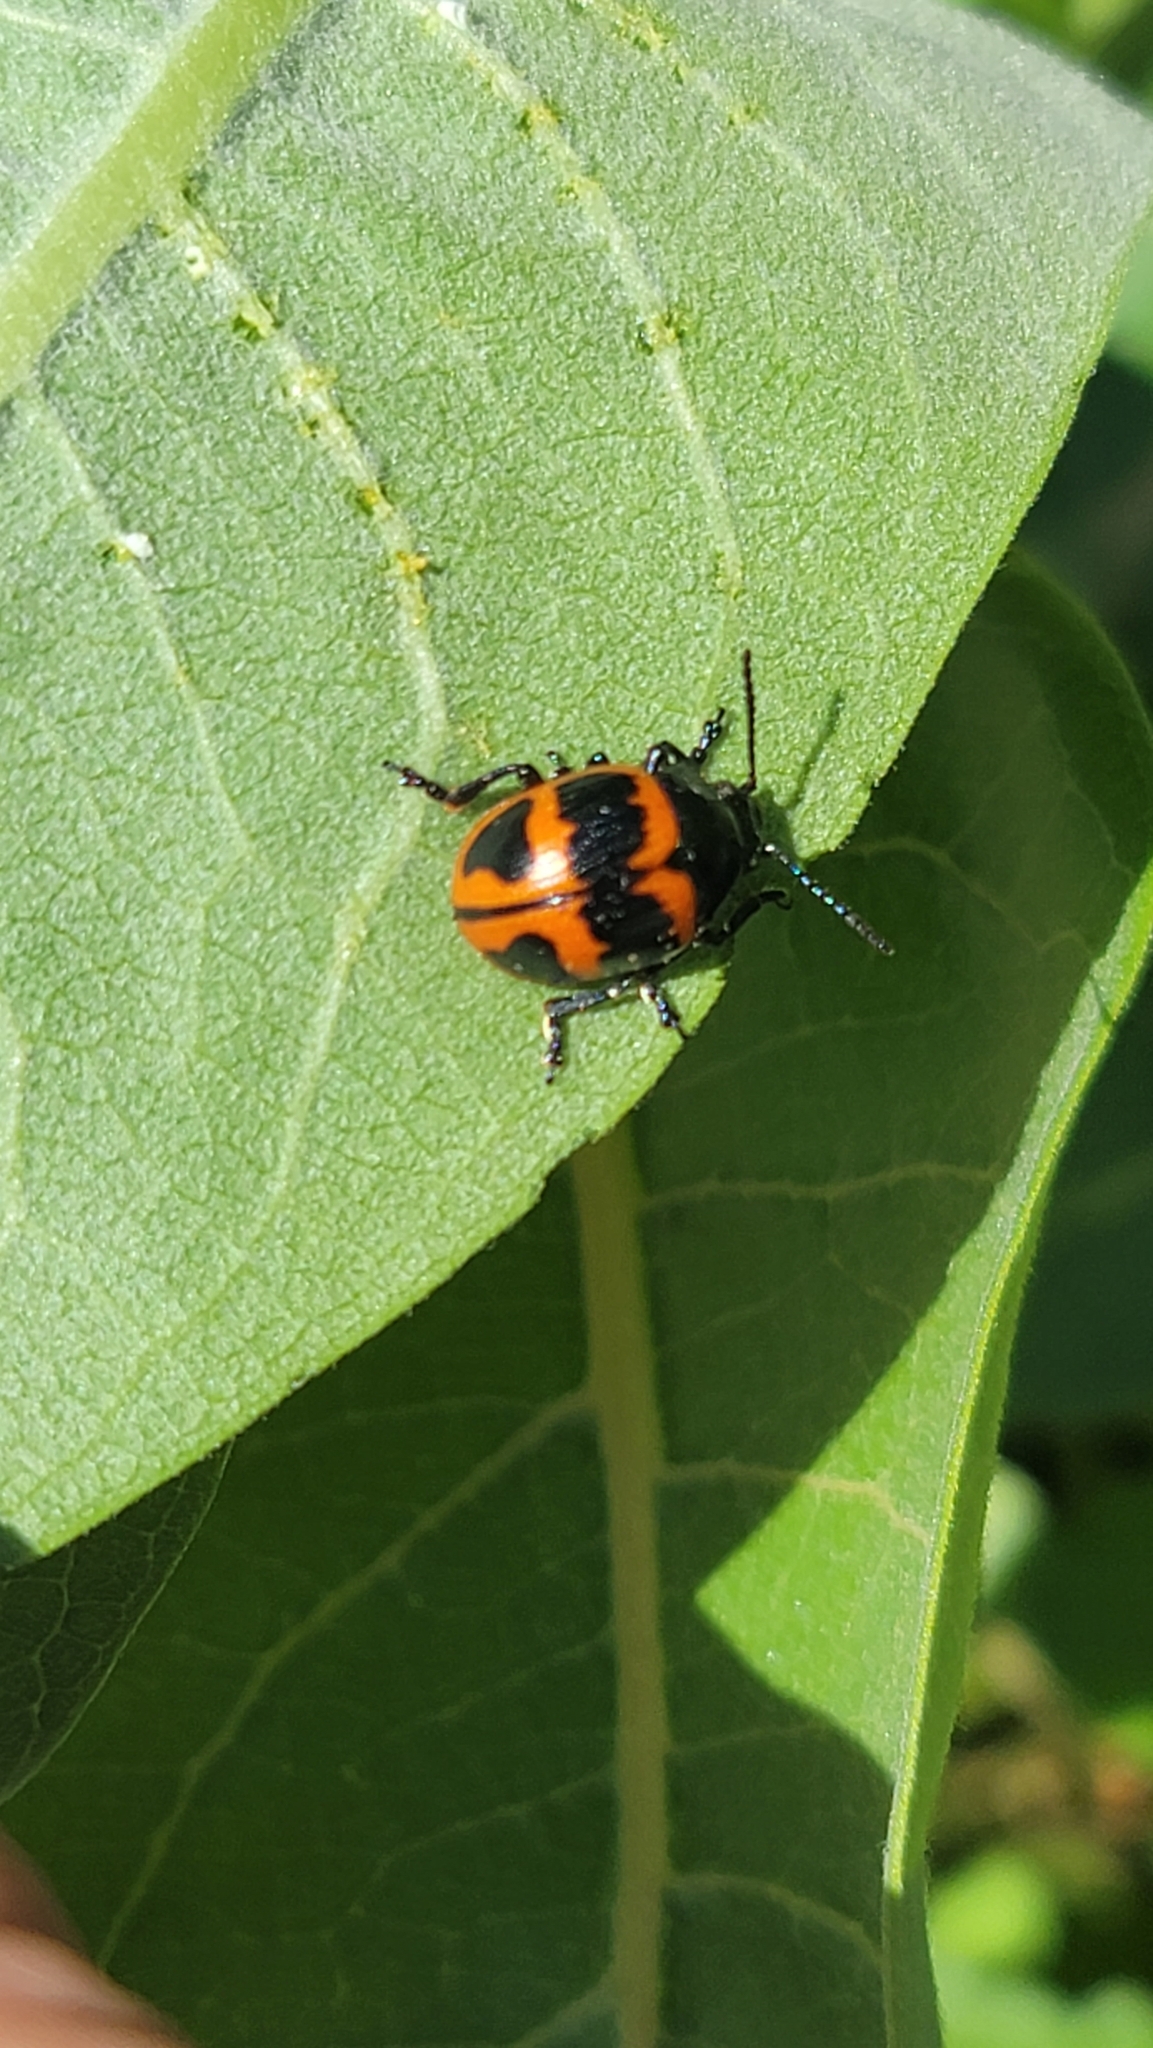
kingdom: Animalia
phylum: Arthropoda
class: Insecta
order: Coleoptera
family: Chrysomelidae
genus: Labidomera
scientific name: Labidomera clivicollis
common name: Swamp milkweed leaf beetle
